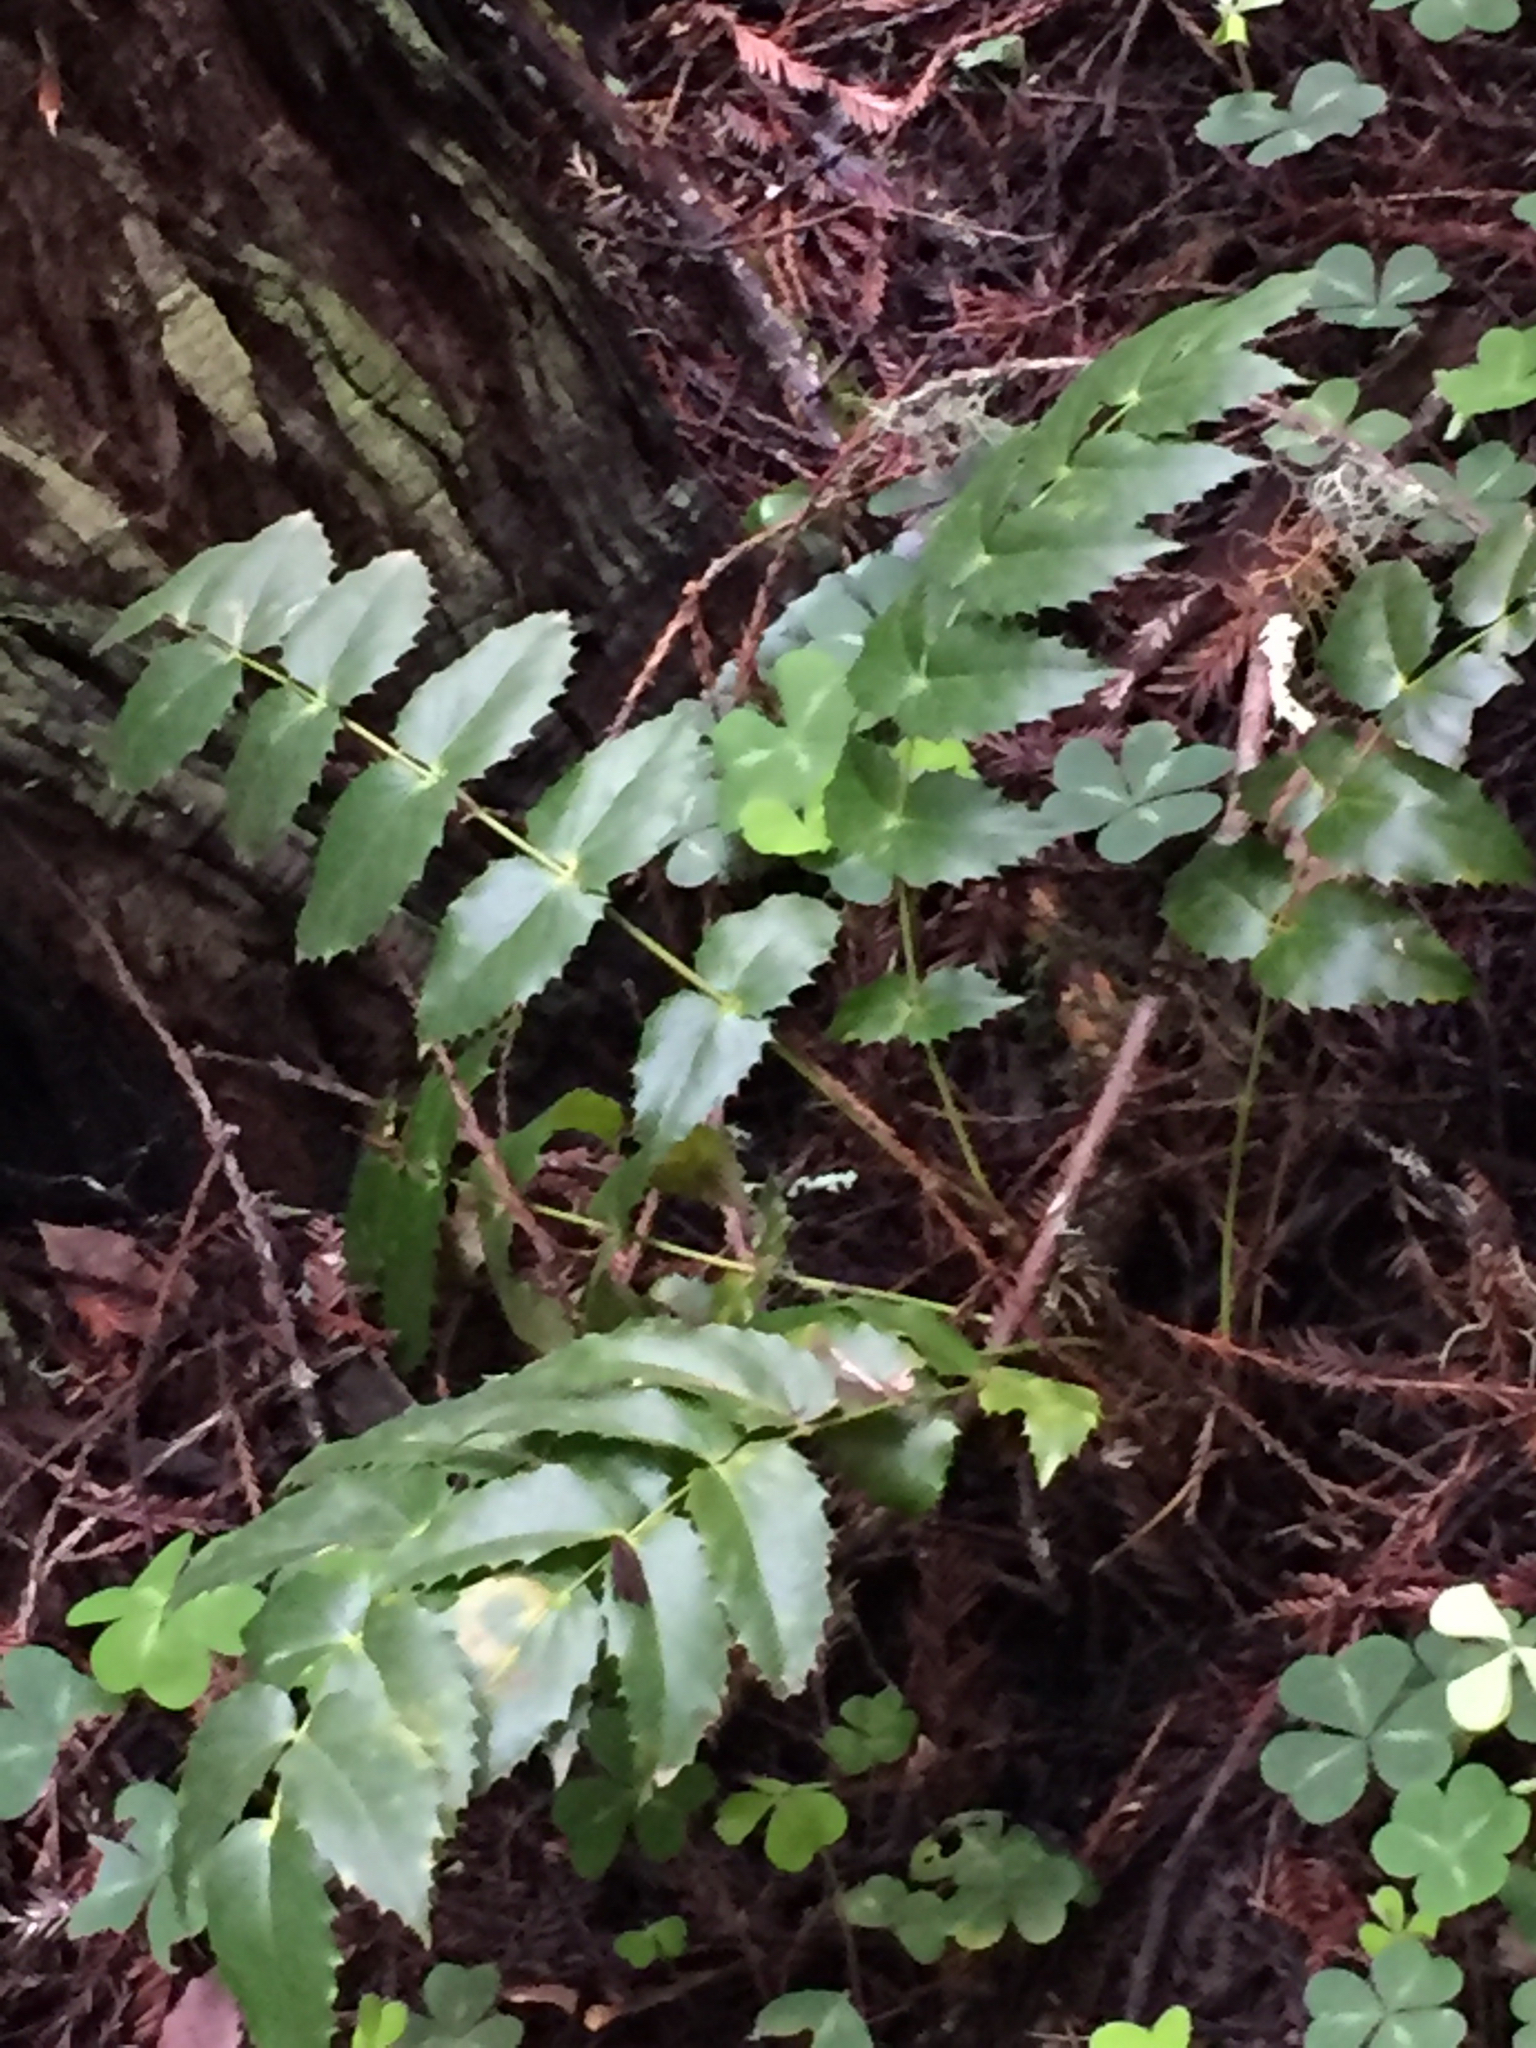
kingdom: Plantae
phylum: Tracheophyta
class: Magnoliopsida
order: Ranunculales
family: Berberidaceae
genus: Mahonia
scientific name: Mahonia nervosa
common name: Cascade oregon-grape
